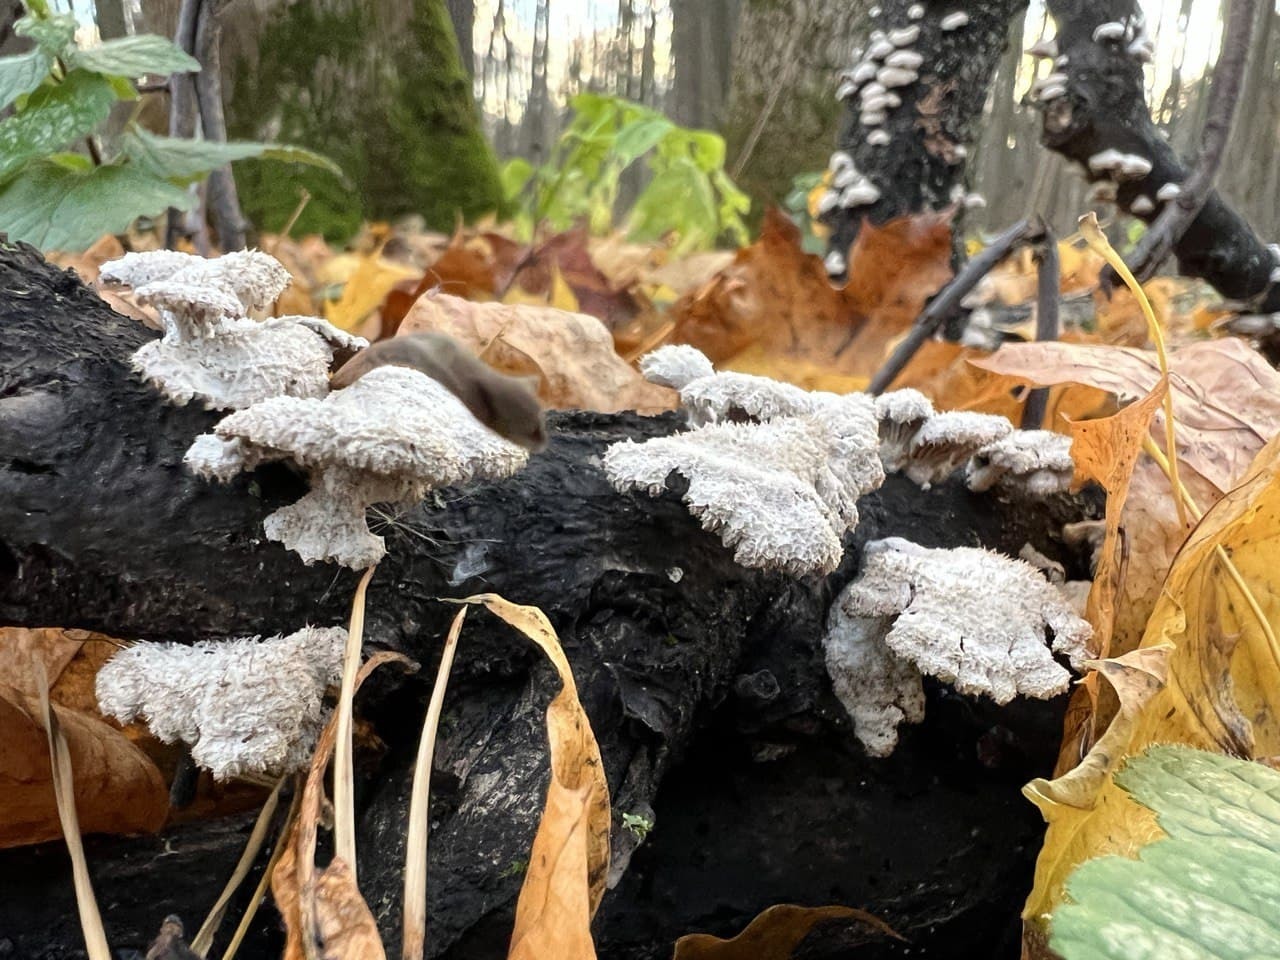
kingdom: Fungi
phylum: Basidiomycota
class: Agaricomycetes
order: Agaricales
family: Schizophyllaceae
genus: Schizophyllum
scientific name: Schizophyllum commune
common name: Common porecrust
